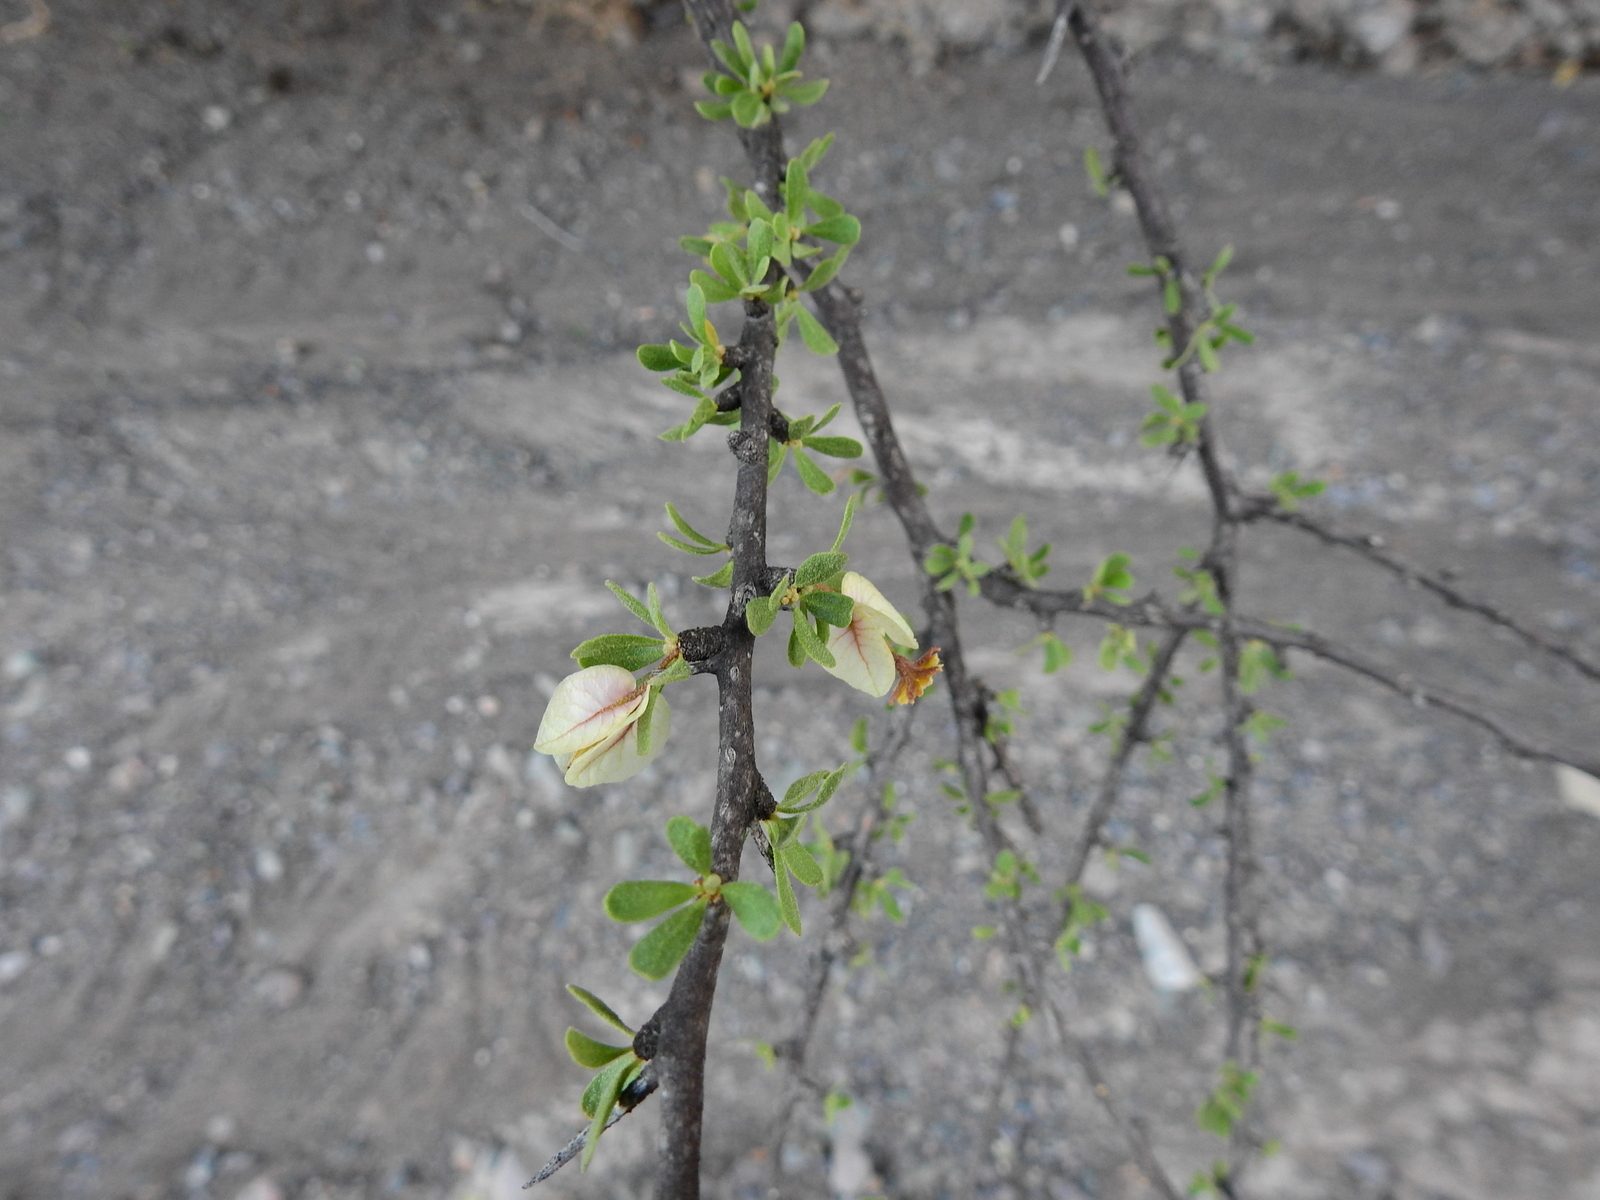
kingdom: Plantae
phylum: Tracheophyta
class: Magnoliopsida
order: Caryophyllales
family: Nyctaginaceae
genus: Bougainvillea
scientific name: Bougainvillea spinosa
